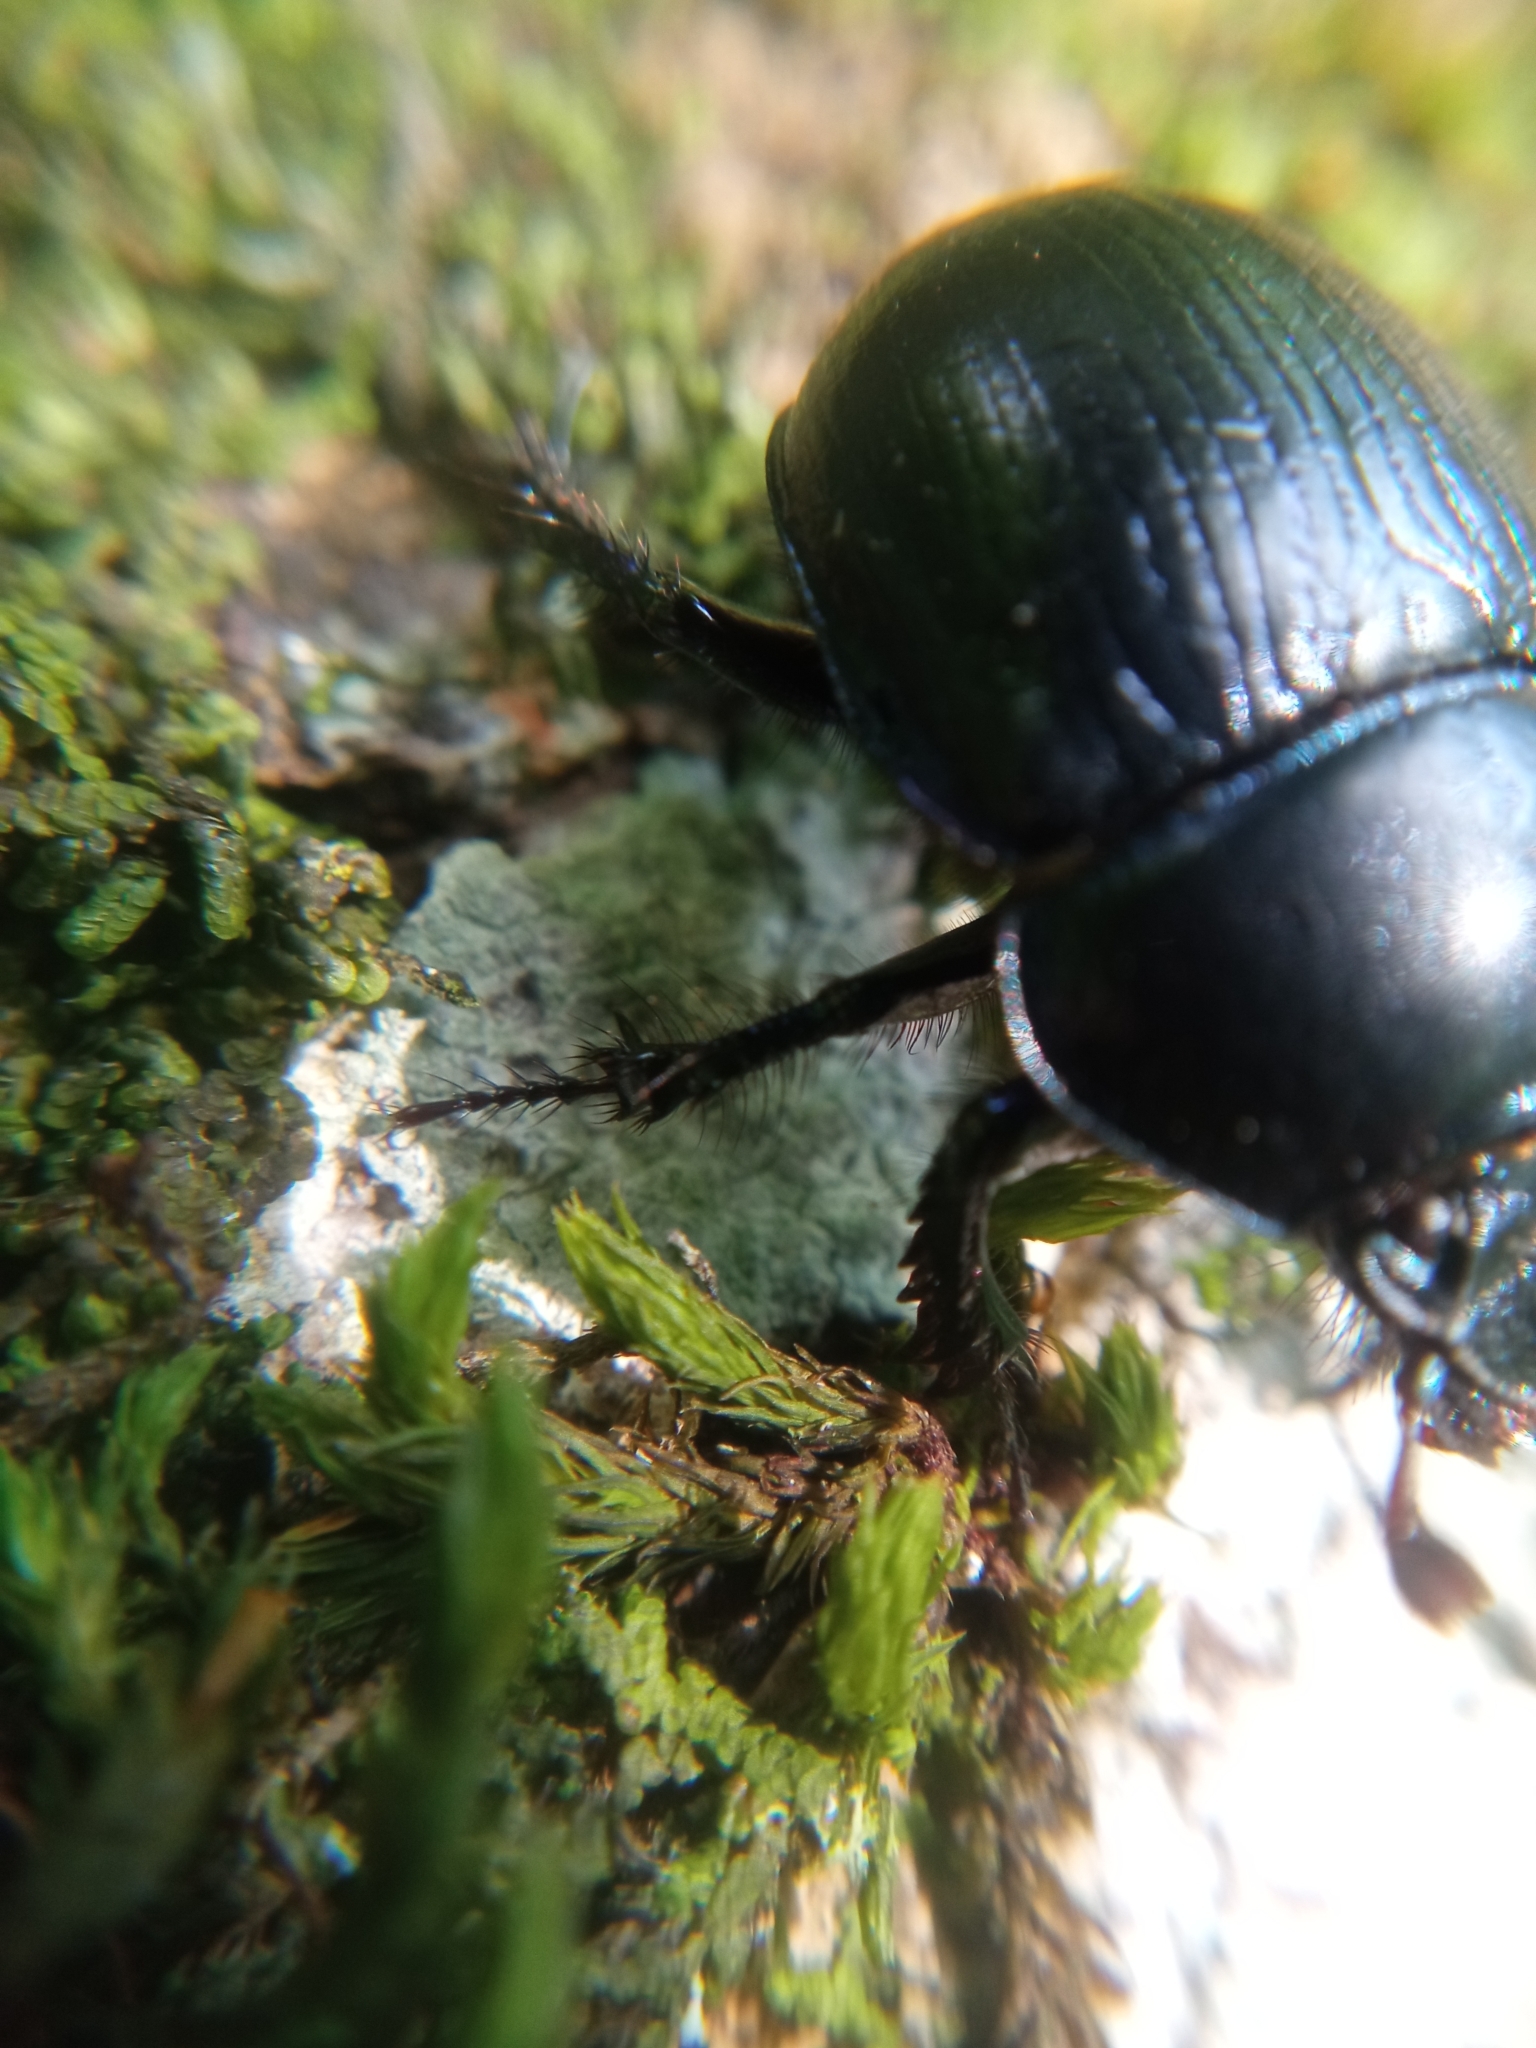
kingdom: Animalia
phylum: Arthropoda
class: Insecta
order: Coleoptera
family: Geotrupidae
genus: Anoplotrupes
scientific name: Anoplotrupes stercorosus
